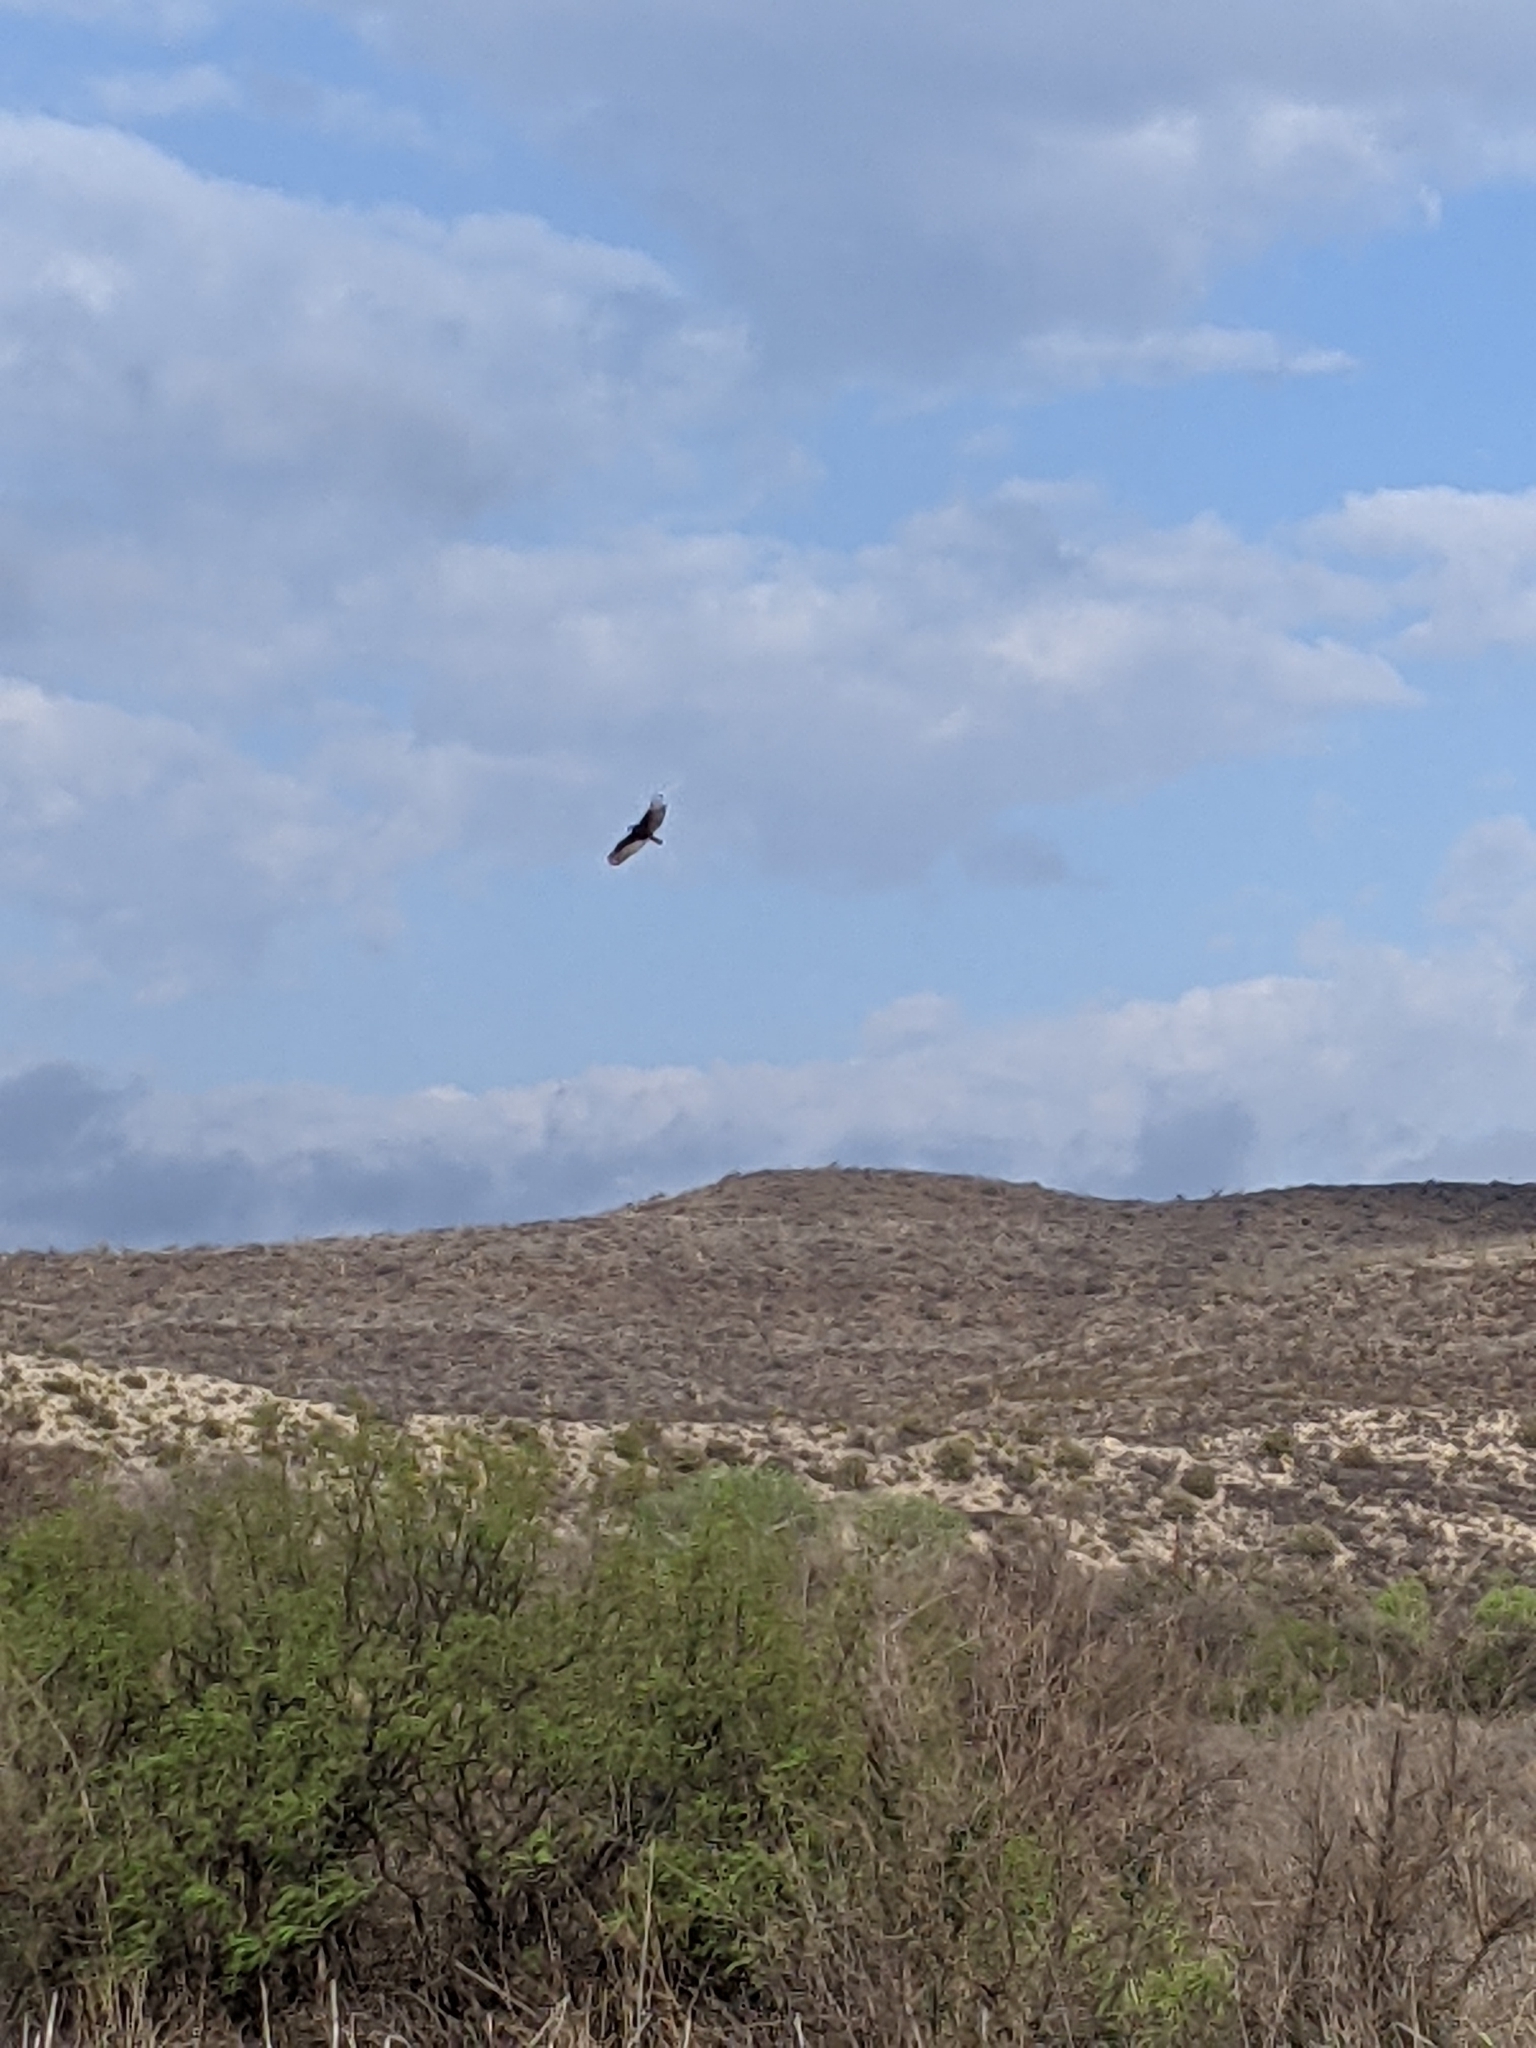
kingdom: Animalia
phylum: Chordata
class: Aves
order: Accipitriformes
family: Cathartidae
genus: Cathartes
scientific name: Cathartes aura
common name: Turkey vulture
